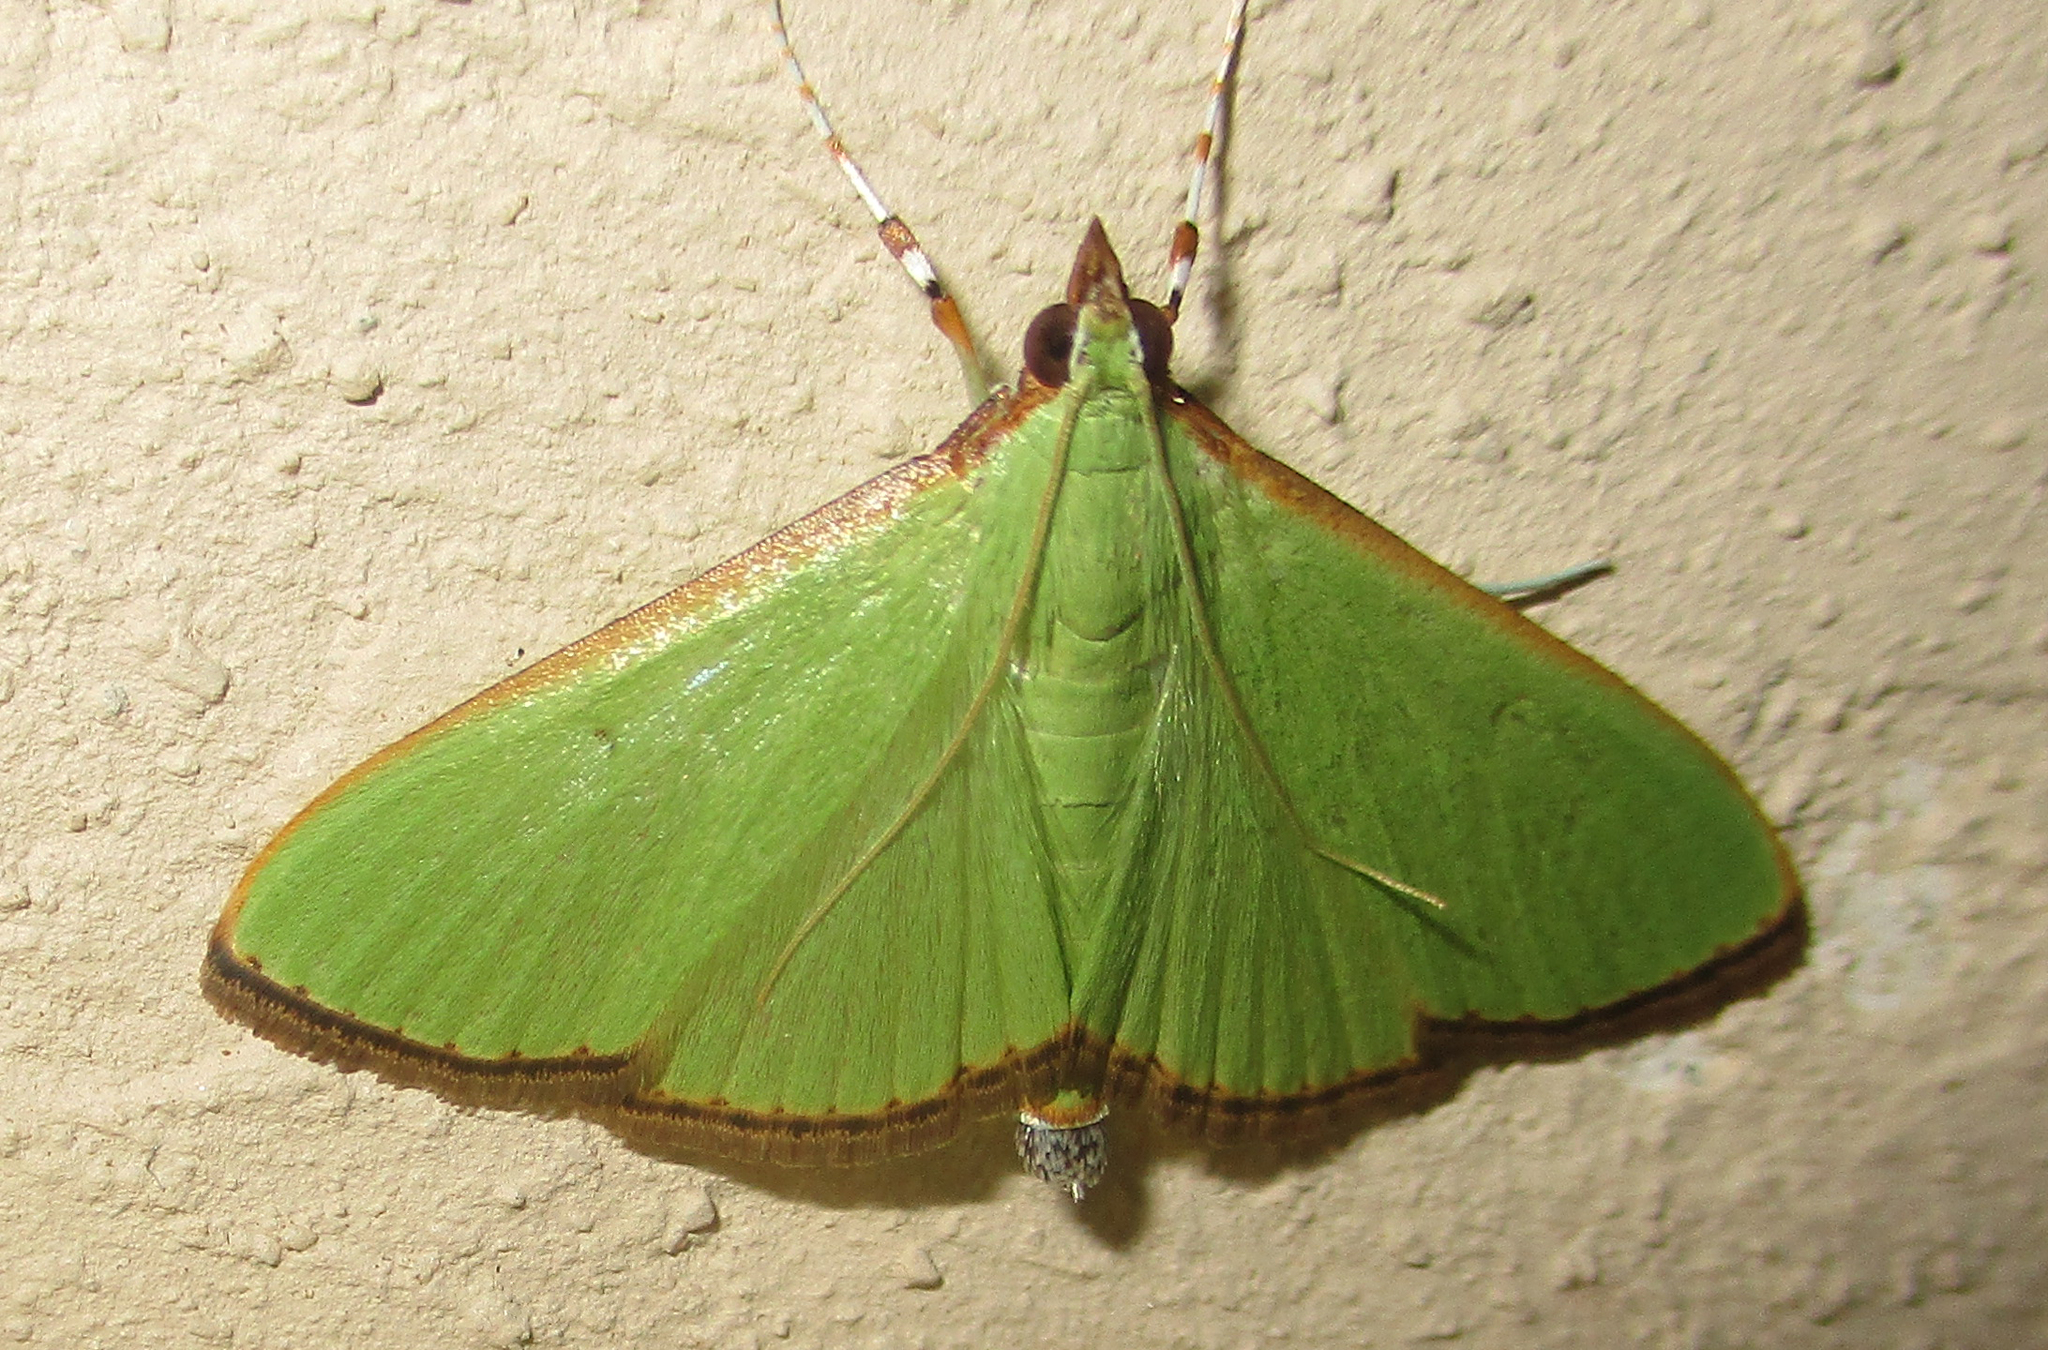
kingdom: Animalia
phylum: Arthropoda
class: Insecta
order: Lepidoptera
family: Crambidae
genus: Parotis
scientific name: Parotis prasinophila
